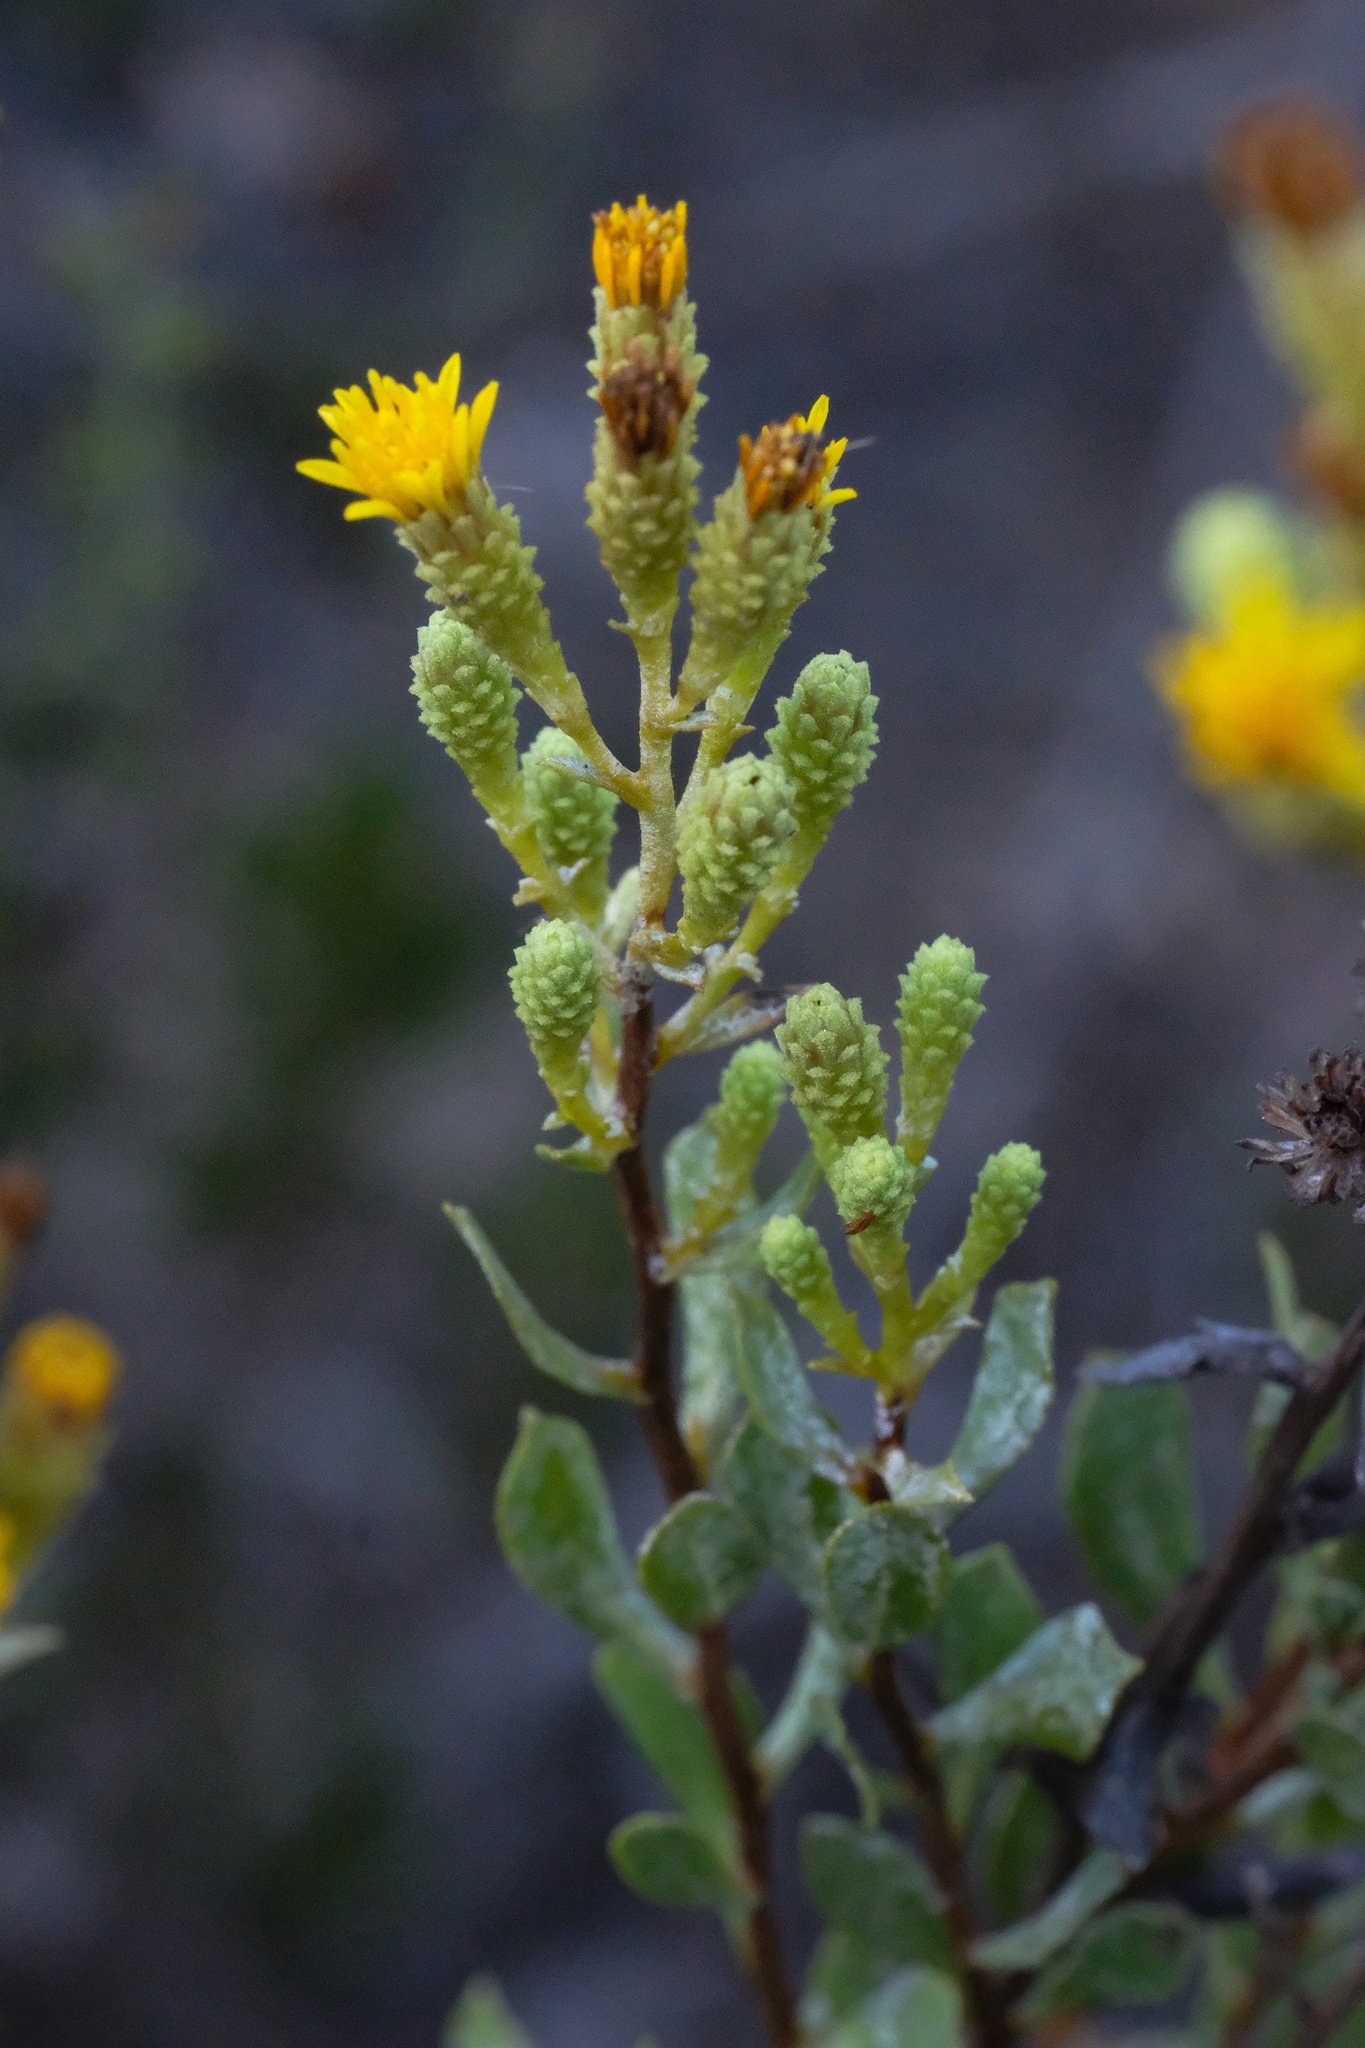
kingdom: Plantae
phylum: Tracheophyta
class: Magnoliopsida
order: Asterales
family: Asteraceae
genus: Hazardia
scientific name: Hazardia orcuttii
